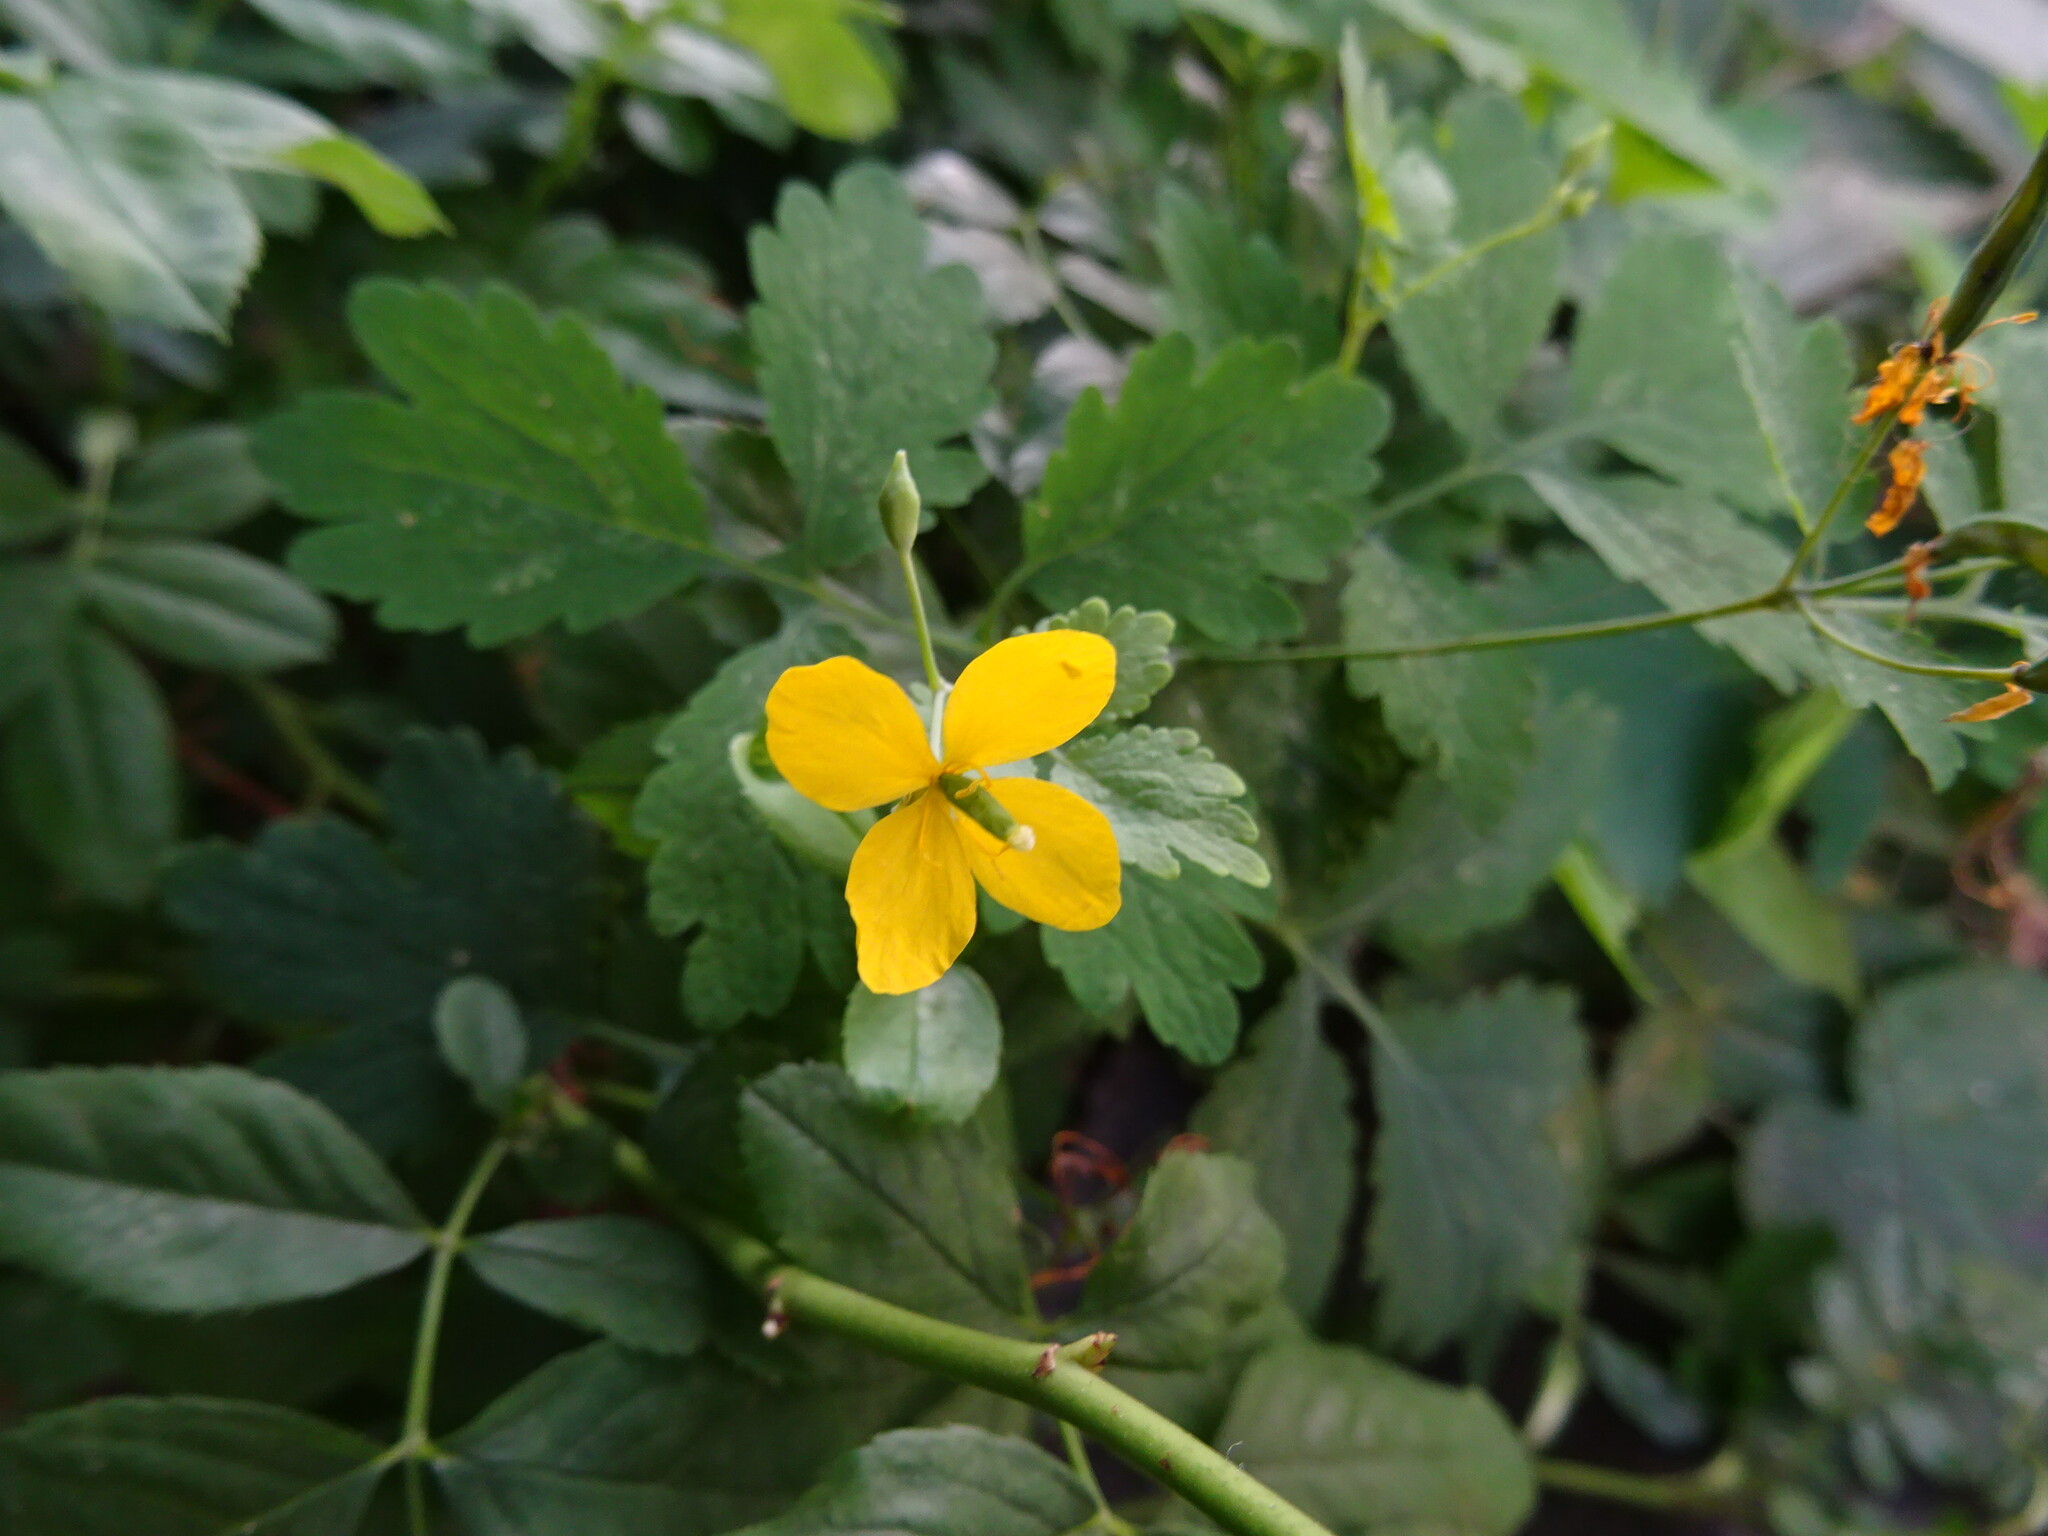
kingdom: Plantae
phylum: Tracheophyta
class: Magnoliopsida
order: Ranunculales
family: Papaveraceae
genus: Chelidonium
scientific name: Chelidonium majus
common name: Greater celandine
